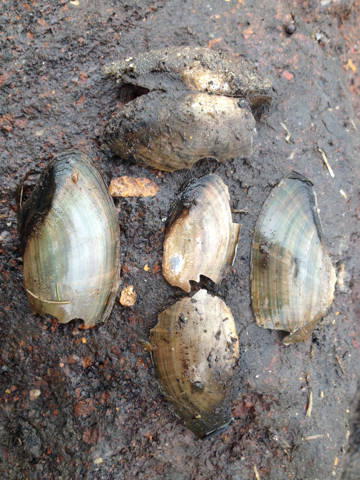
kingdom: Animalia
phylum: Mollusca
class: Bivalvia
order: Unionida
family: Unionidae
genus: Utterbackia
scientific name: Utterbackia imbecillis
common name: Paper pondshell
